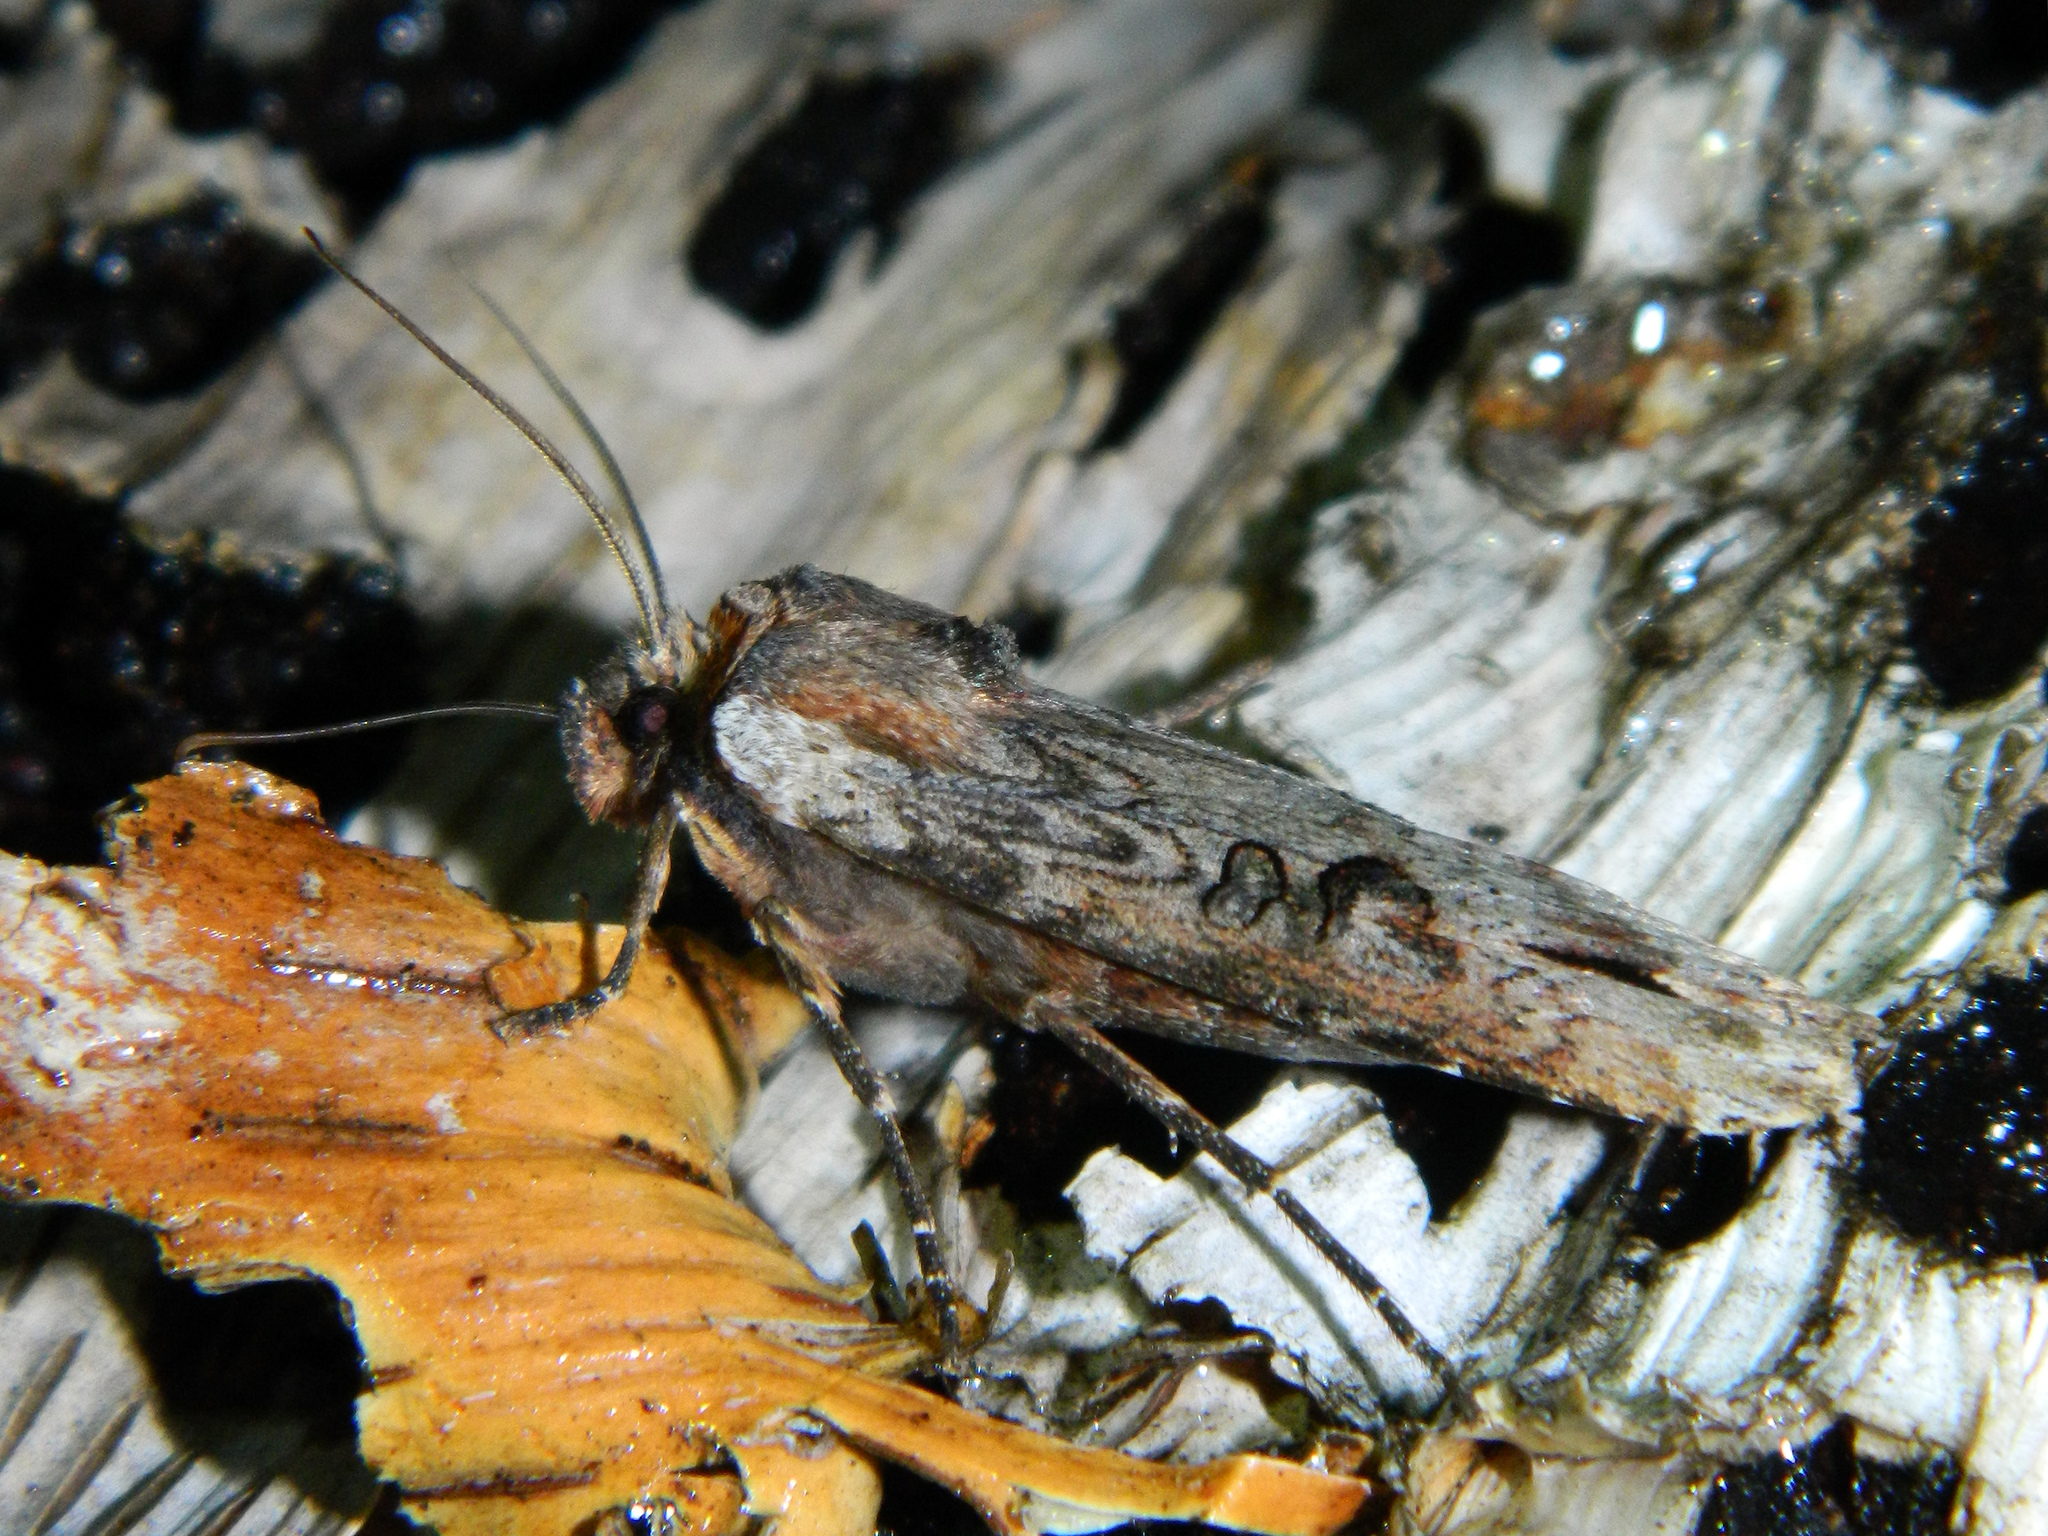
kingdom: Animalia
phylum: Arthropoda
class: Insecta
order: Lepidoptera
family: Noctuidae
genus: Xylena
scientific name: Xylena thoracica
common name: Acadian swordgrass moth
